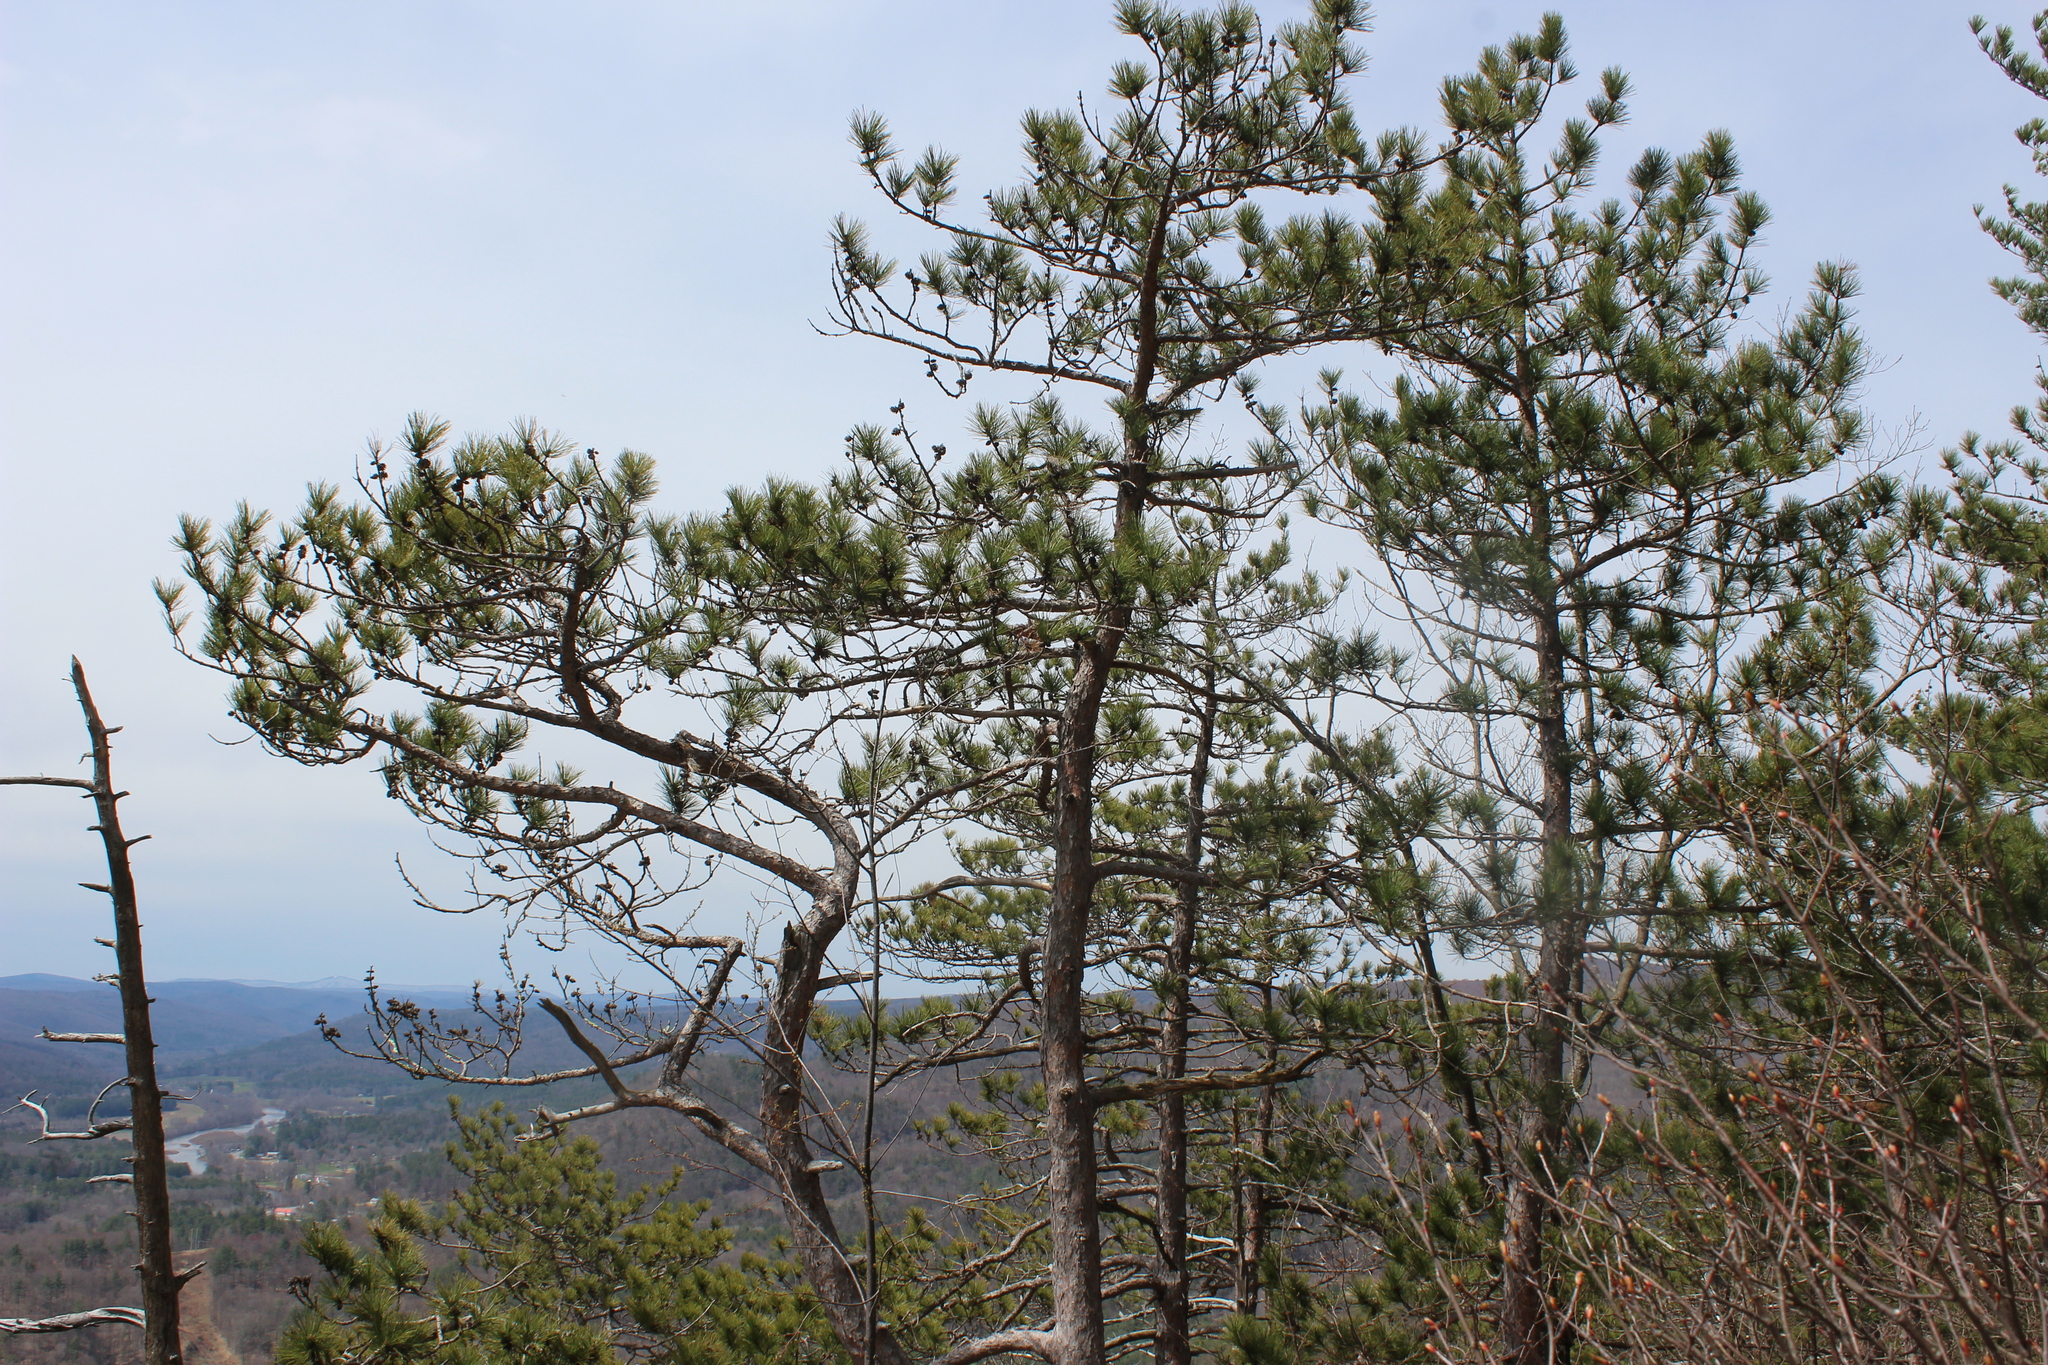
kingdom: Plantae
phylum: Tracheophyta
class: Pinopsida
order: Pinales
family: Pinaceae
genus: Pinus
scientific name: Pinus resinosa
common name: Norway pine
